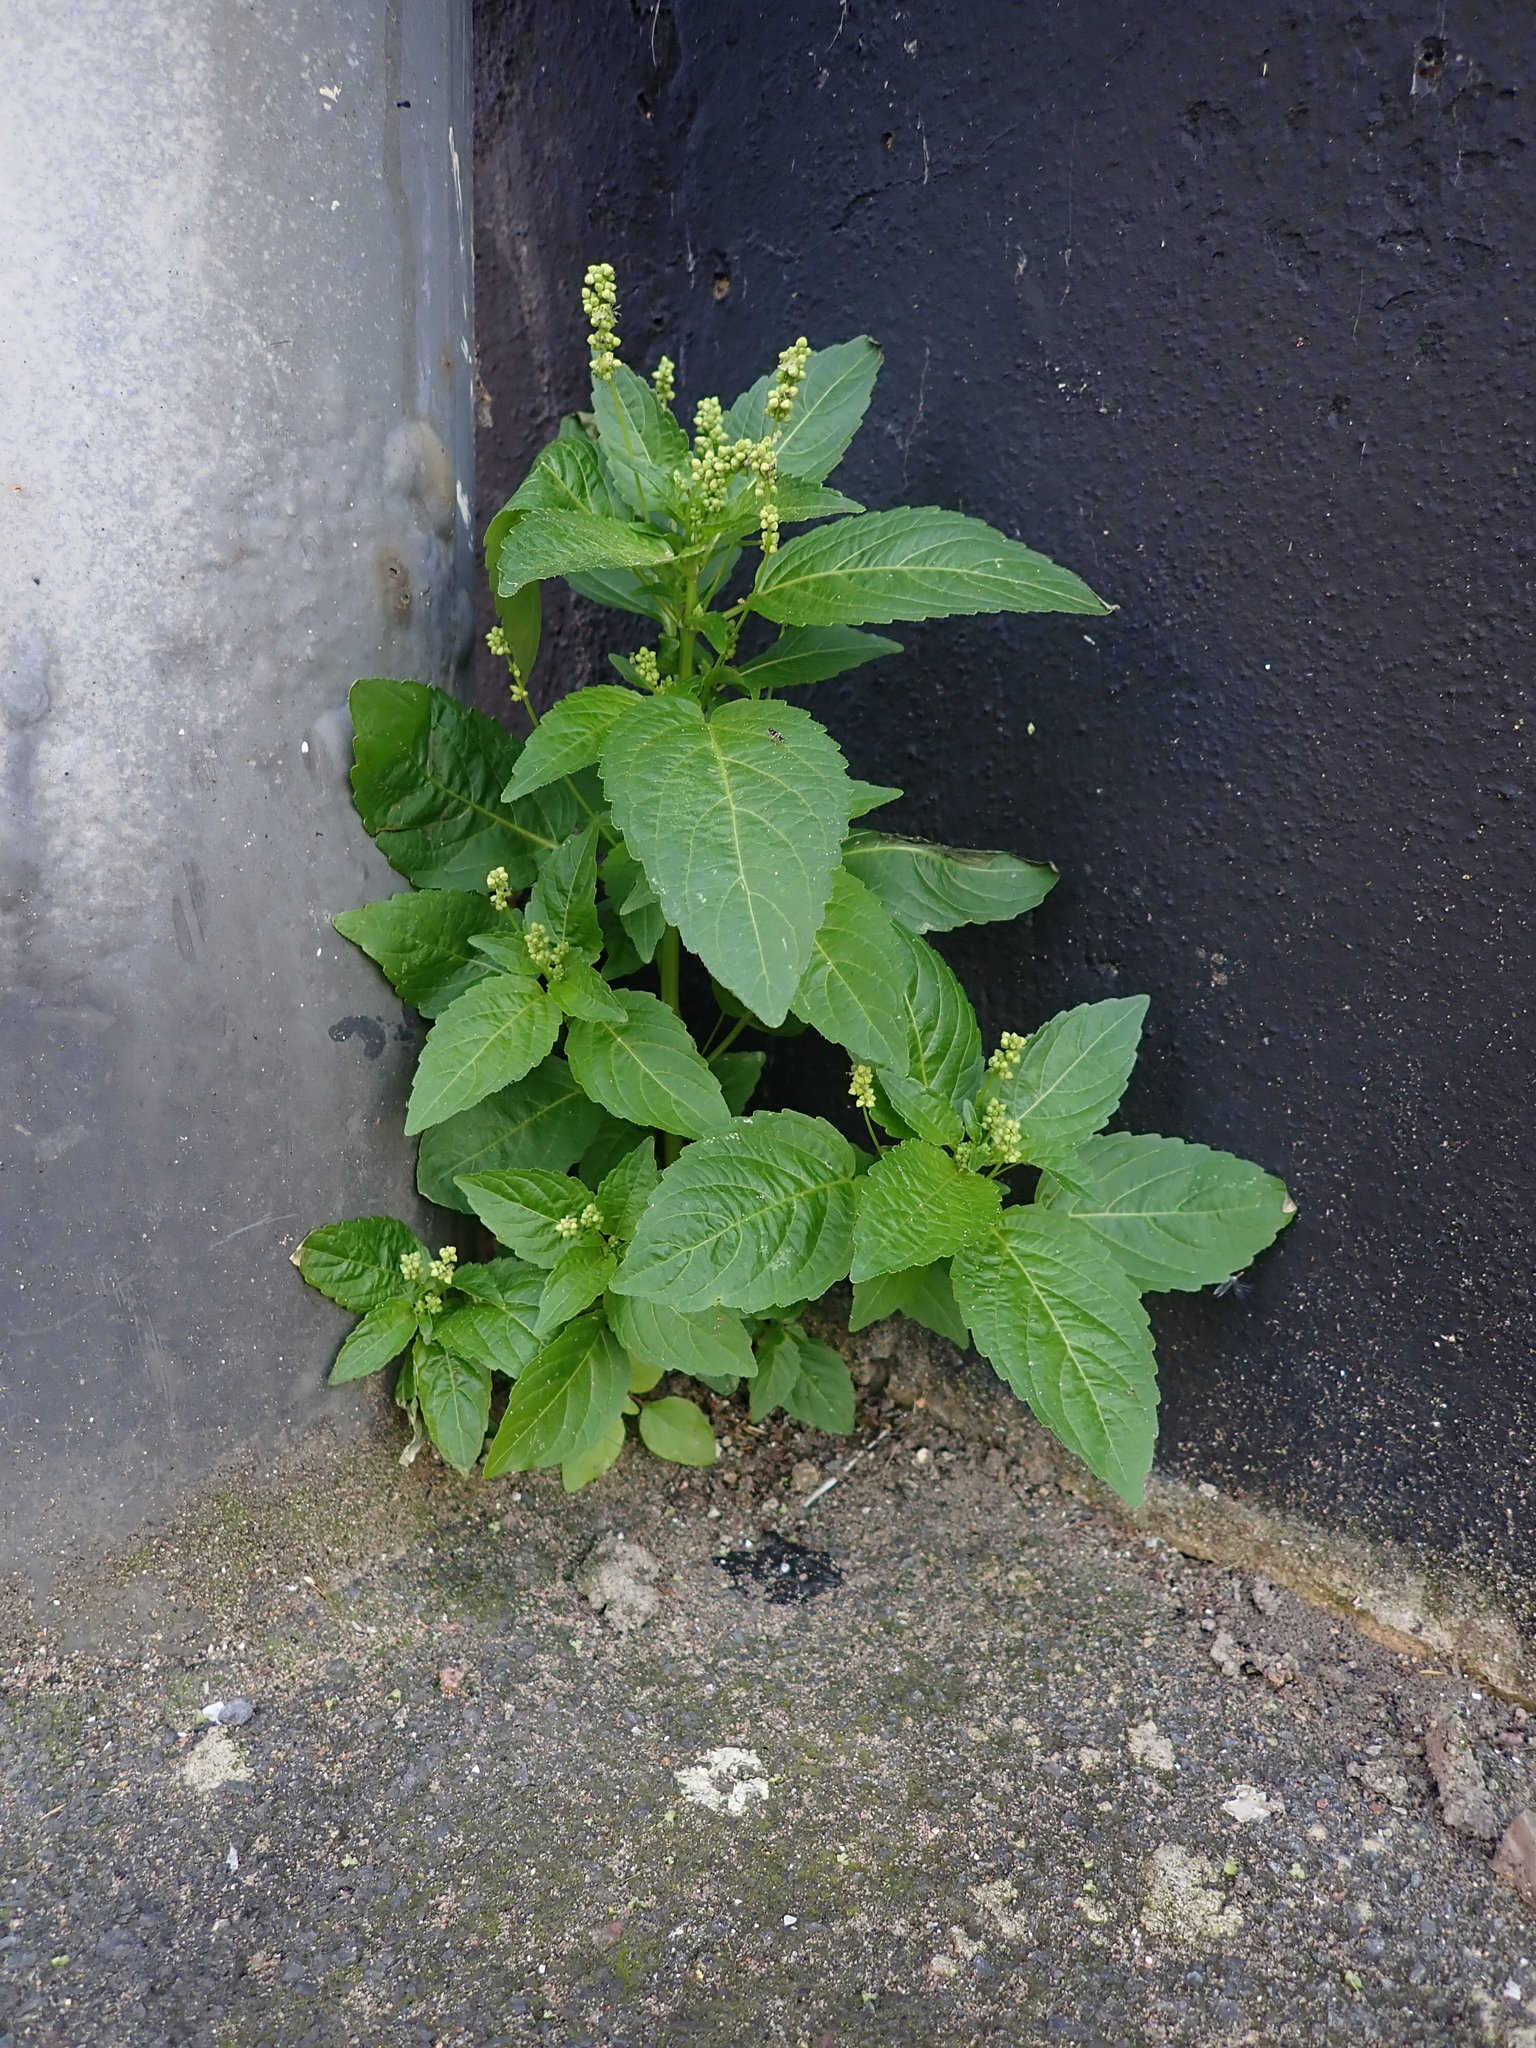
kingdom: Plantae
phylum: Tracheophyta
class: Magnoliopsida
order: Malpighiales
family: Euphorbiaceae
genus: Mercurialis
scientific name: Mercurialis annua
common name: Annual mercury
